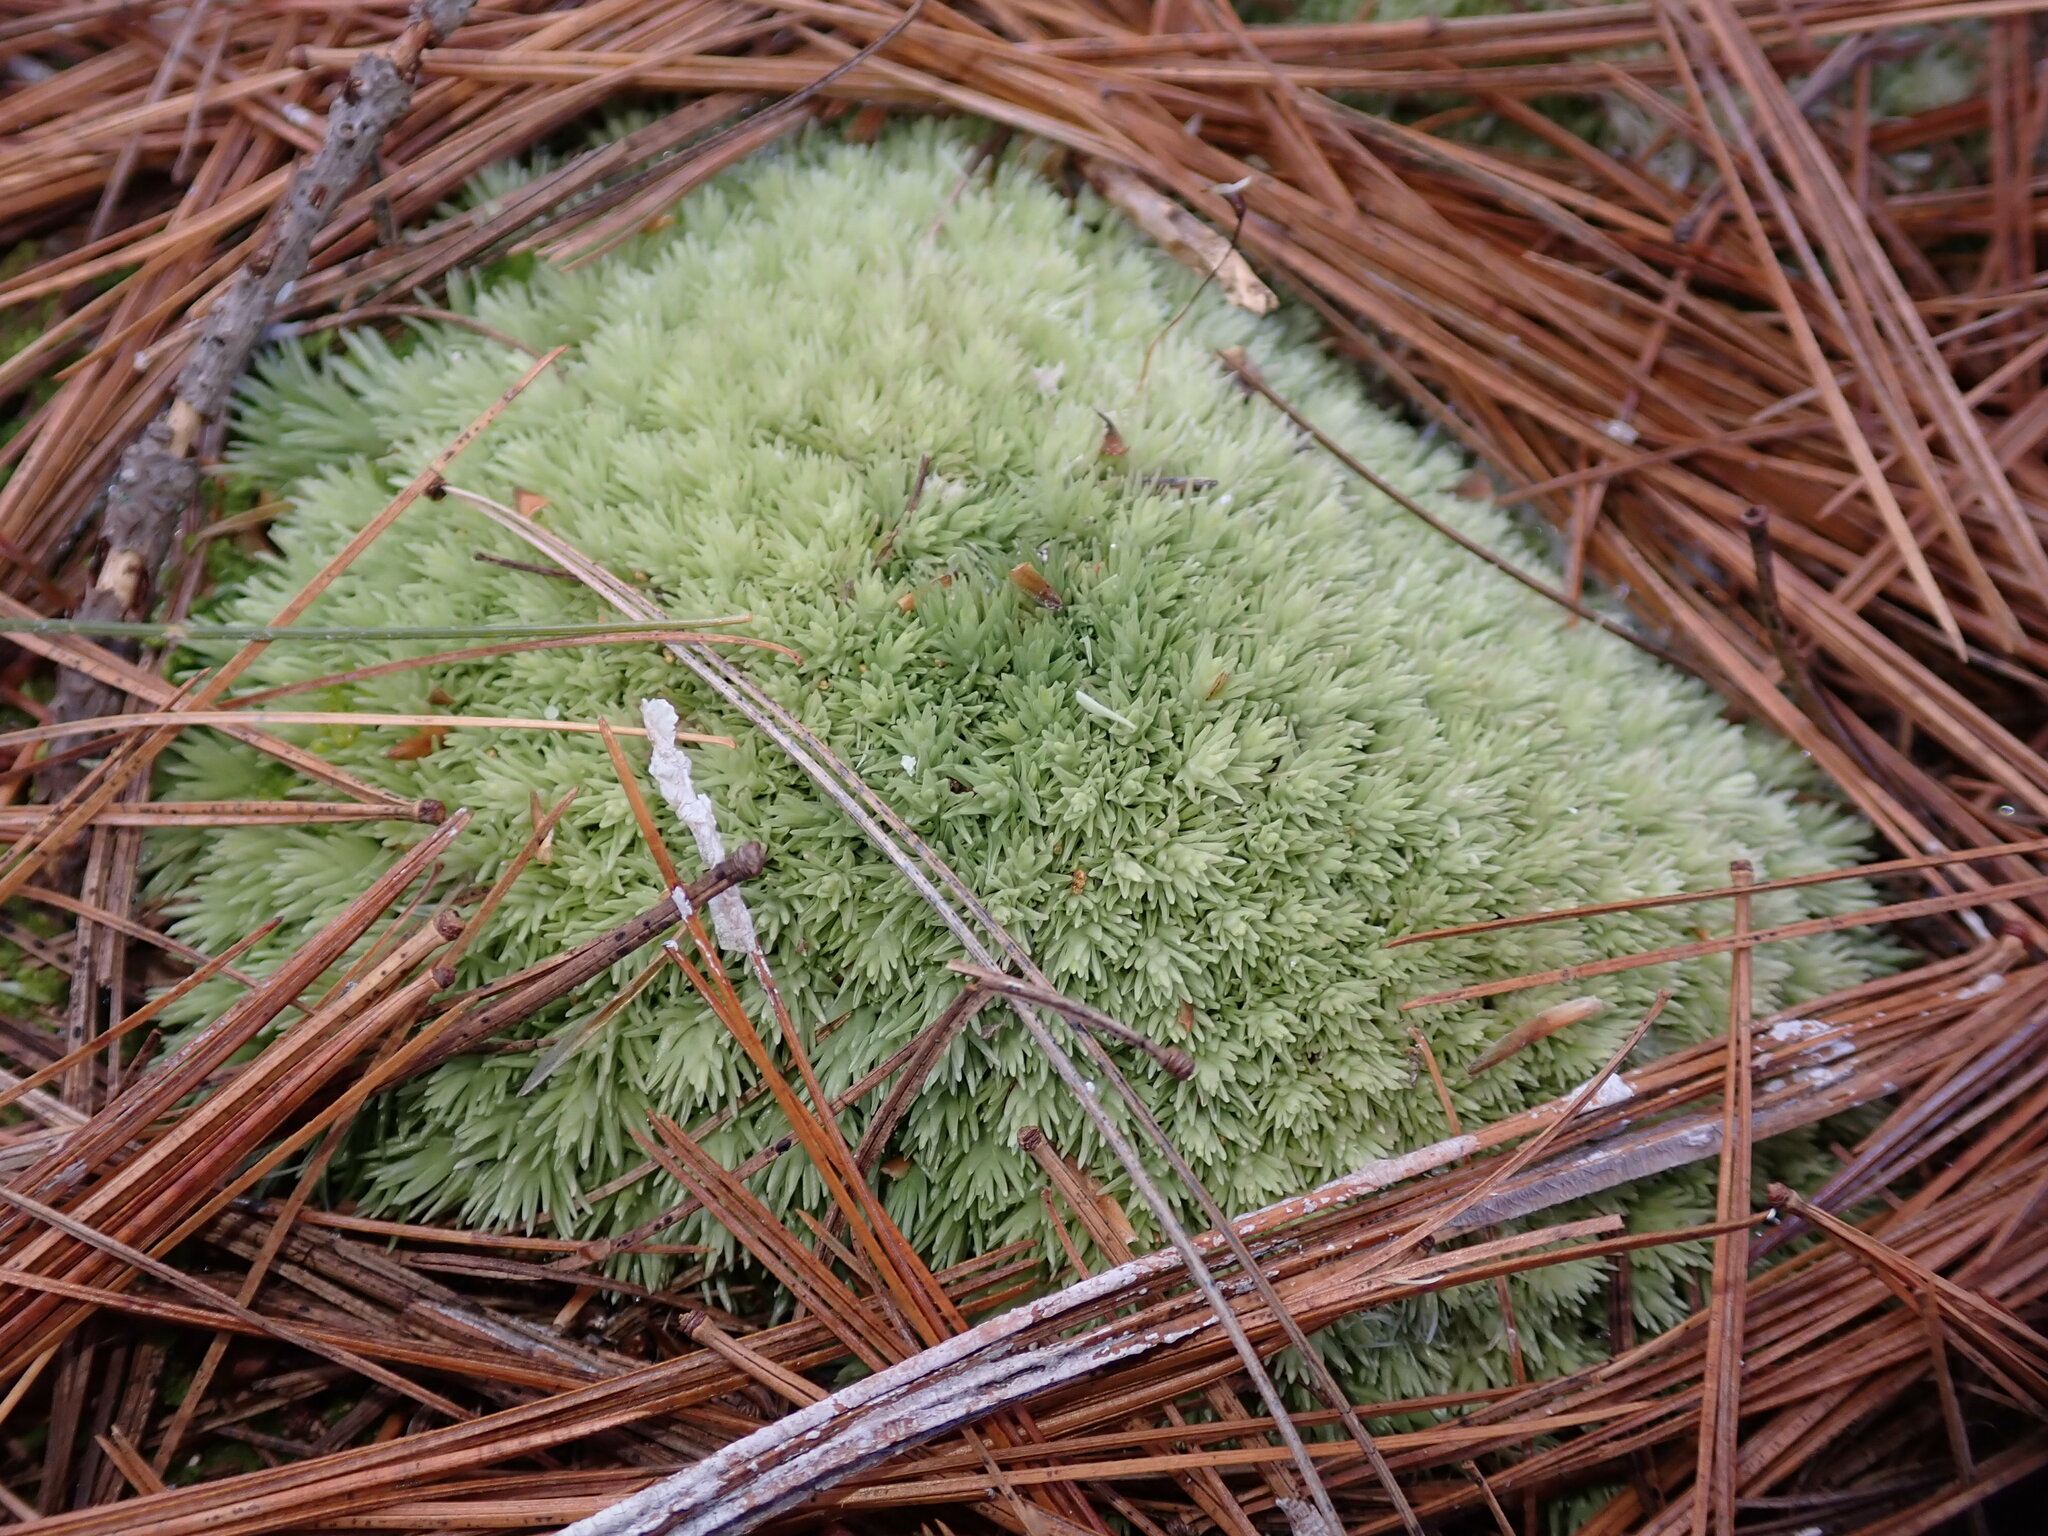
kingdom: Plantae
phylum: Bryophyta
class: Bryopsida
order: Dicranales
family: Leucobryaceae
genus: Leucobryum
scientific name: Leucobryum
